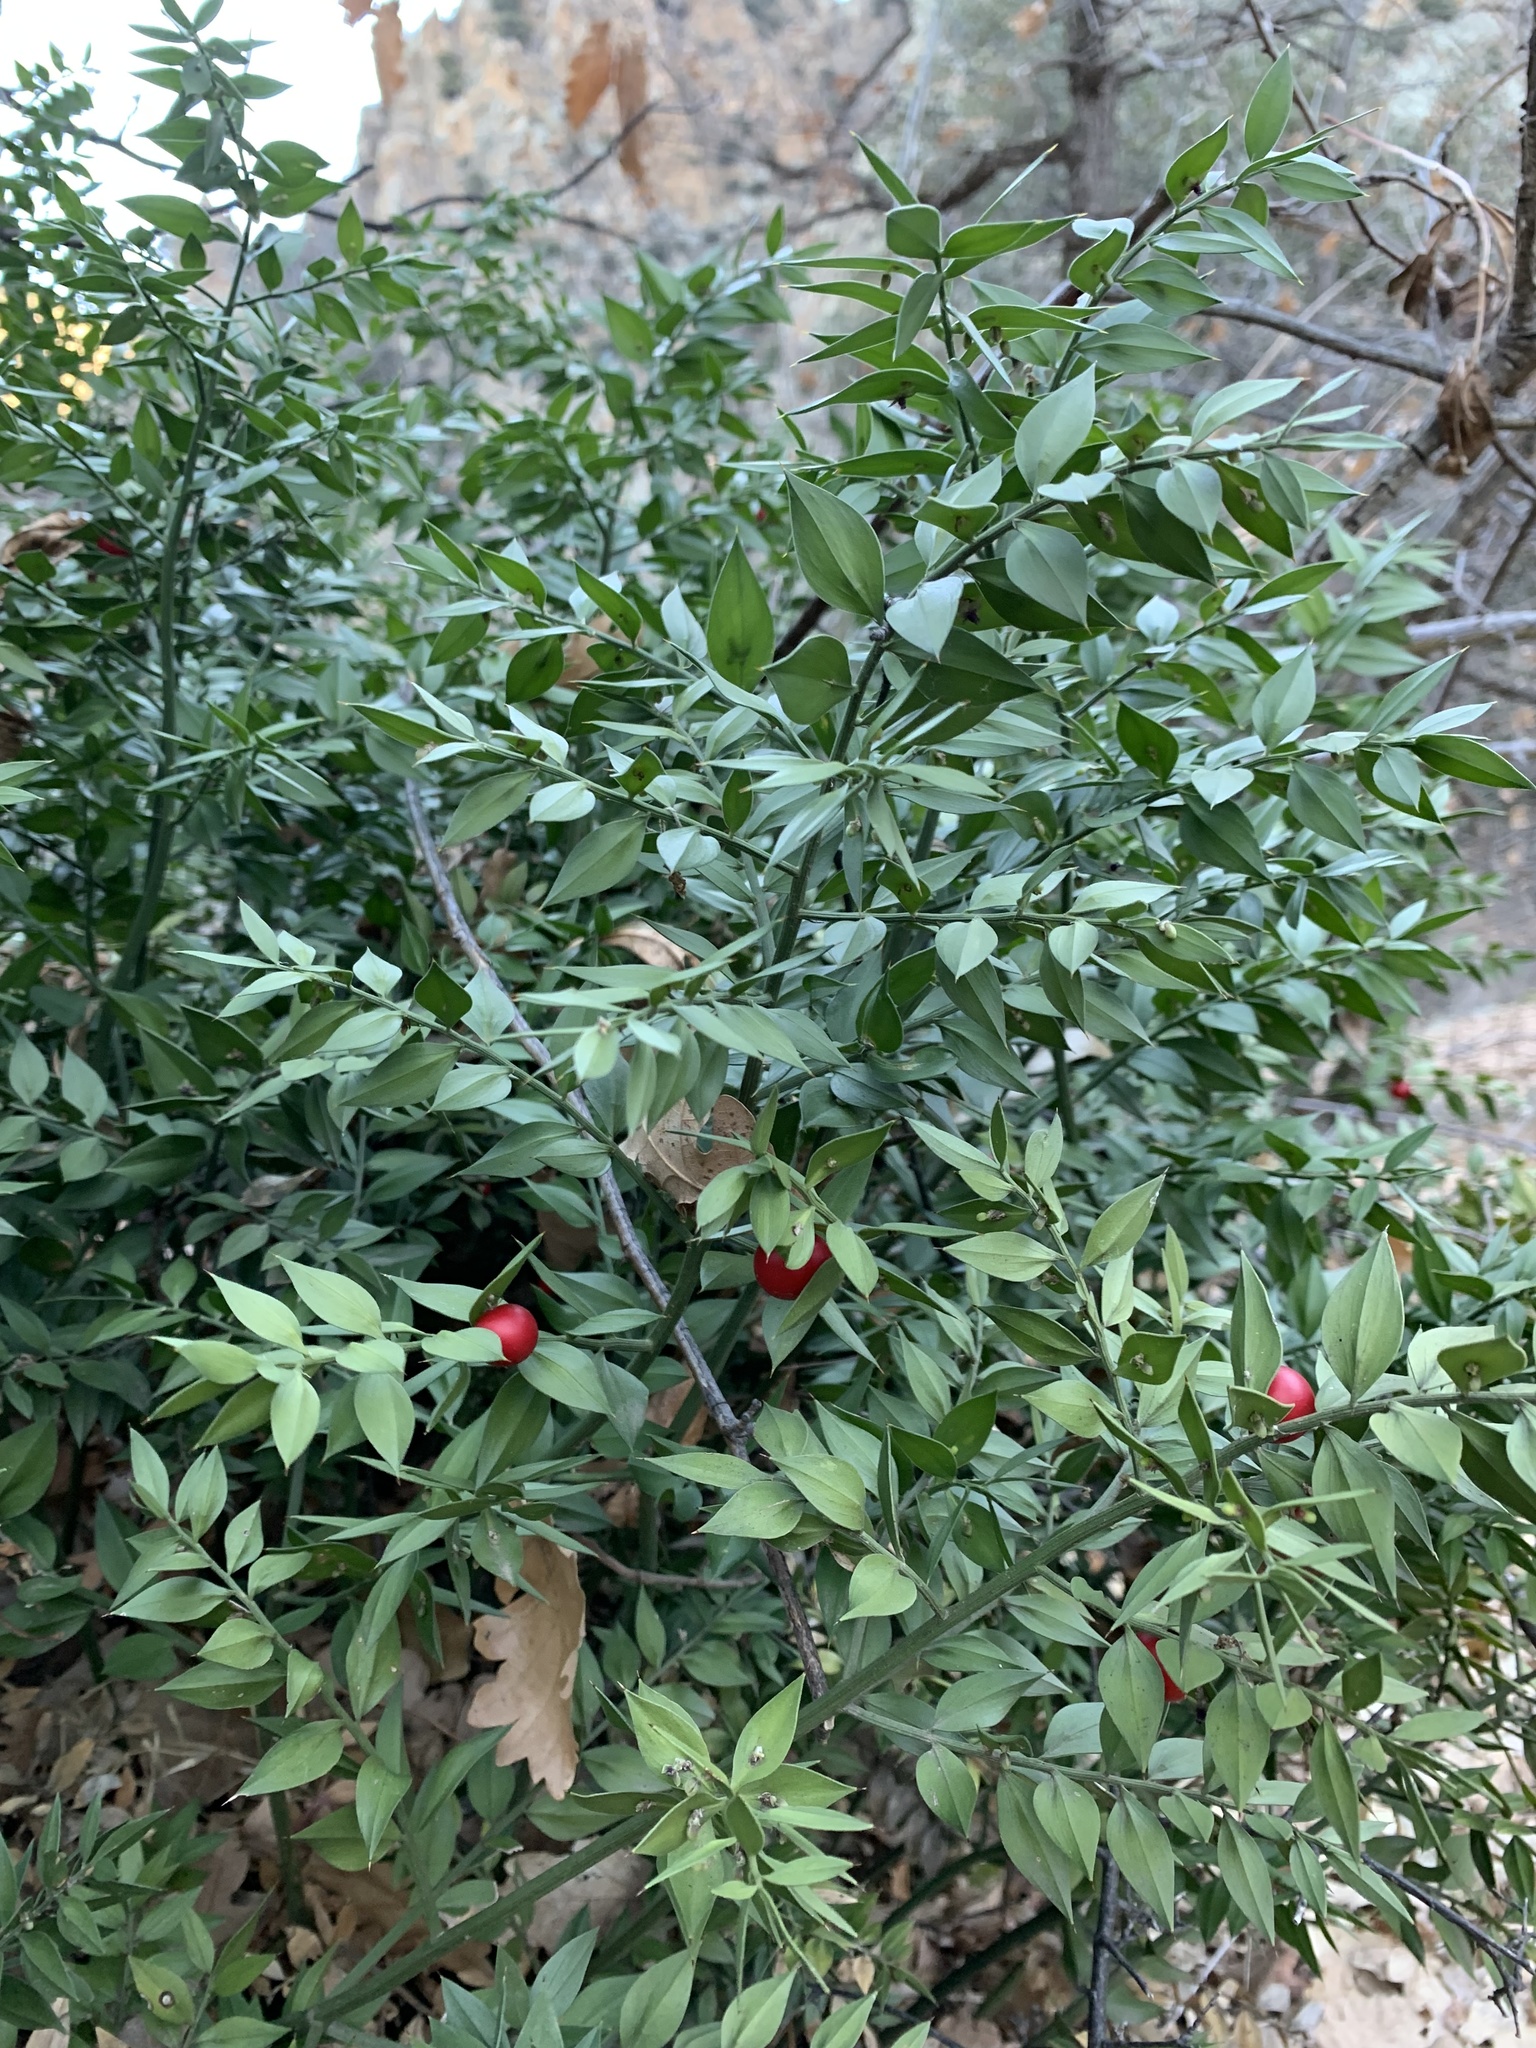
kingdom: Plantae
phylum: Tracheophyta
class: Liliopsida
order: Asparagales
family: Asparagaceae
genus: Ruscus
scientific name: Ruscus aculeatus
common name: Butcher's-broom
